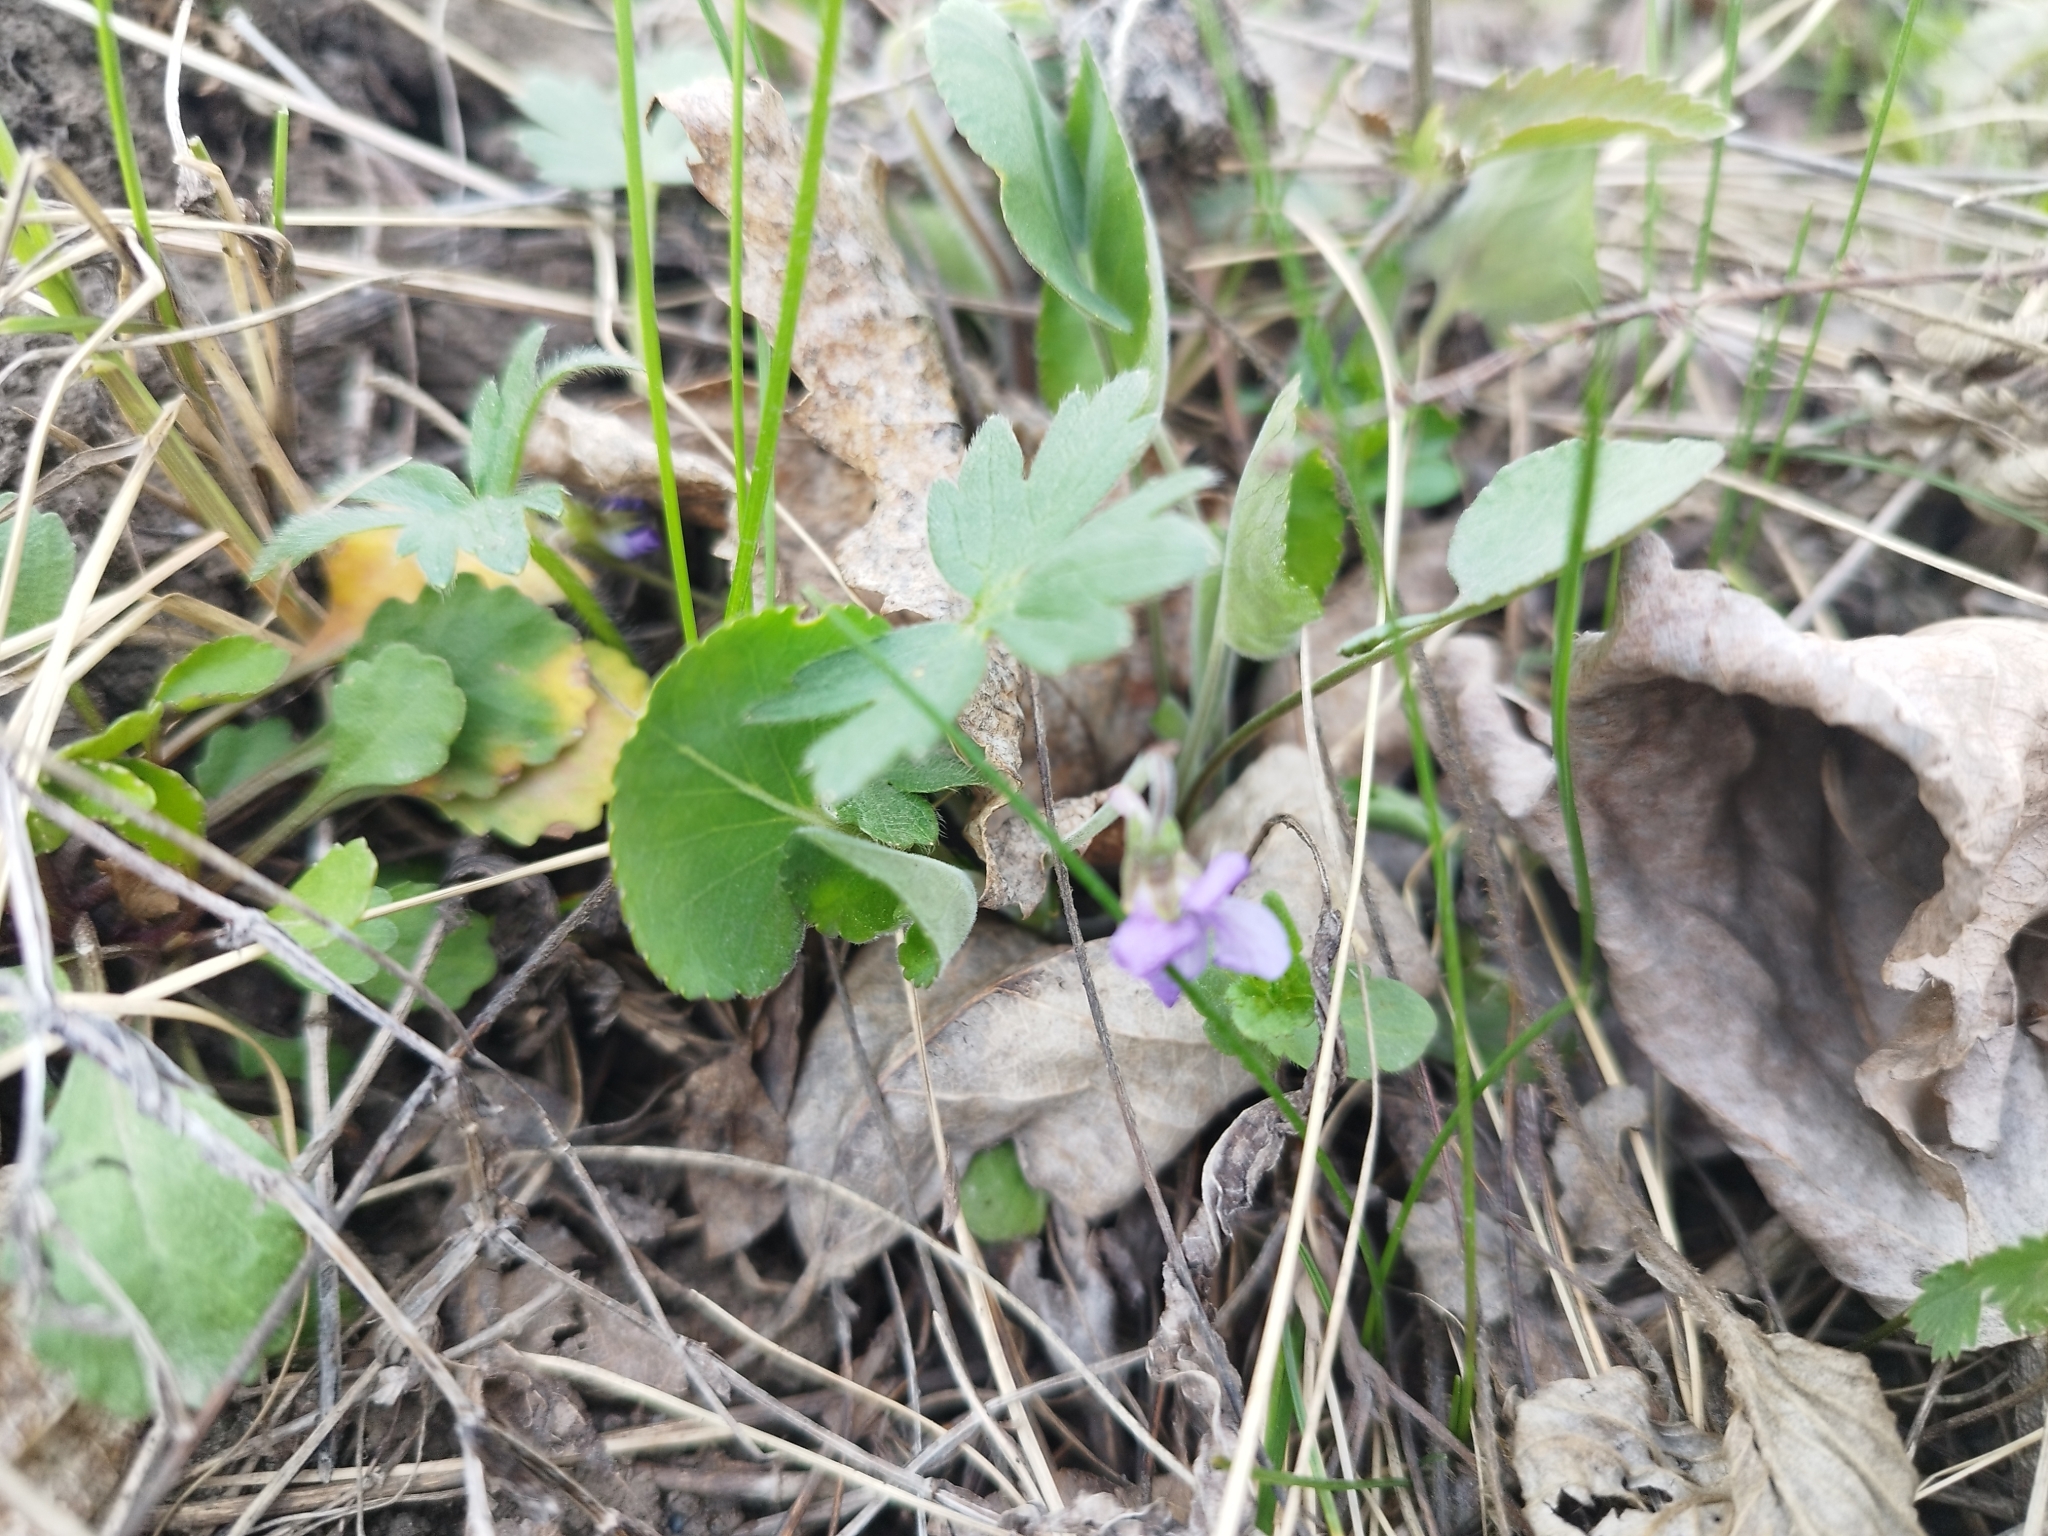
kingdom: Plantae
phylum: Tracheophyta
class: Magnoliopsida
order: Malpighiales
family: Violaceae
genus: Viola
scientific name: Viola rupestris
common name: Teesdale violet
